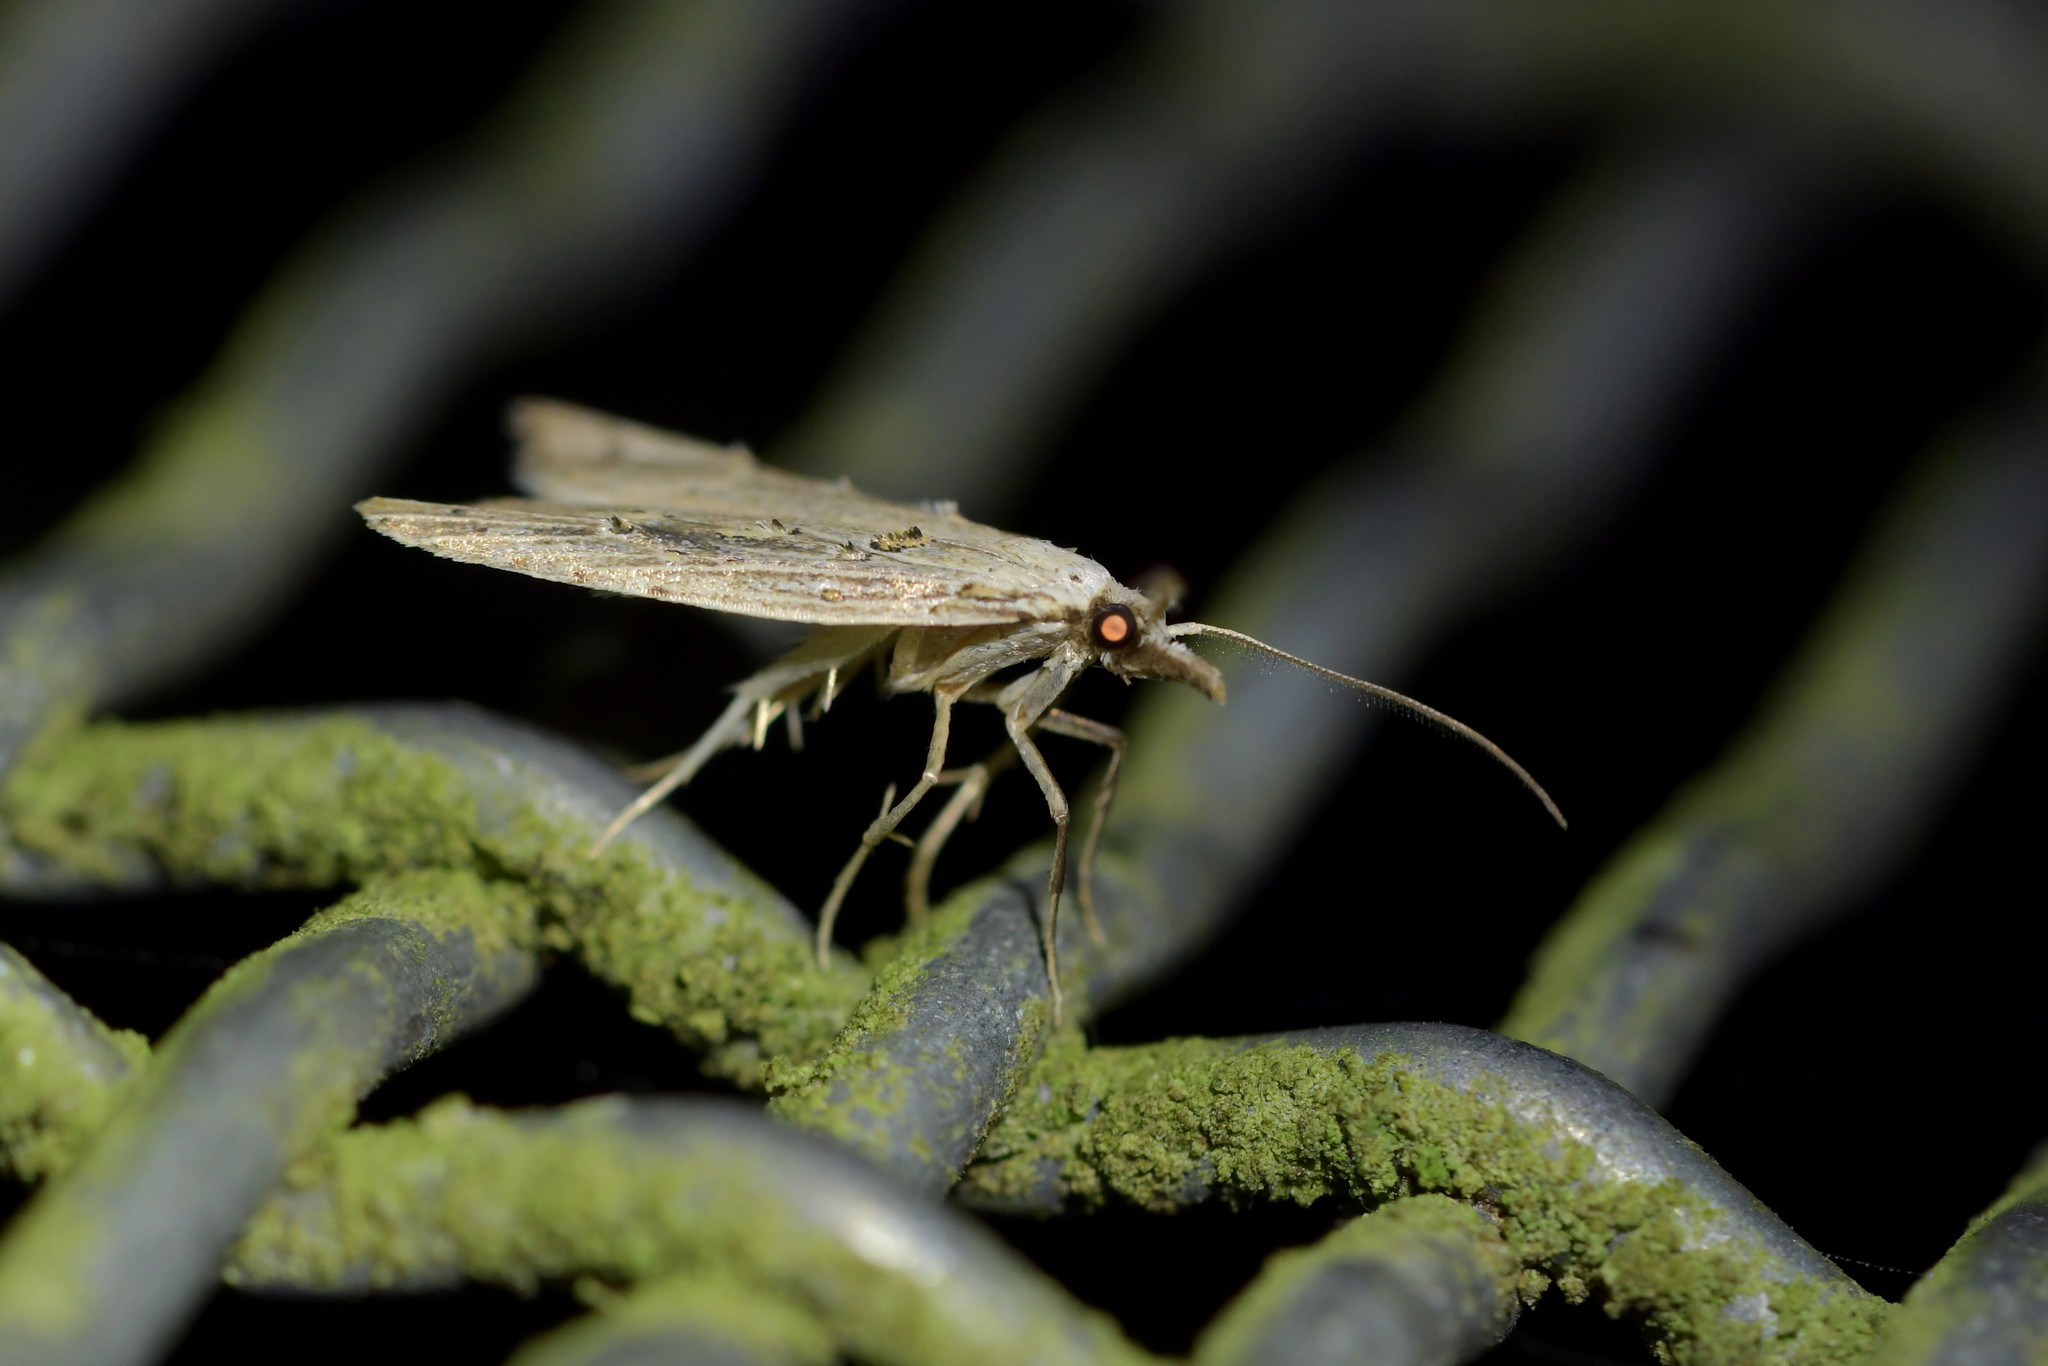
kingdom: Animalia
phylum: Arthropoda
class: Insecta
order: Lepidoptera
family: Carposinidae
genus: Carposina
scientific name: Carposina Heterocrossa exochana
